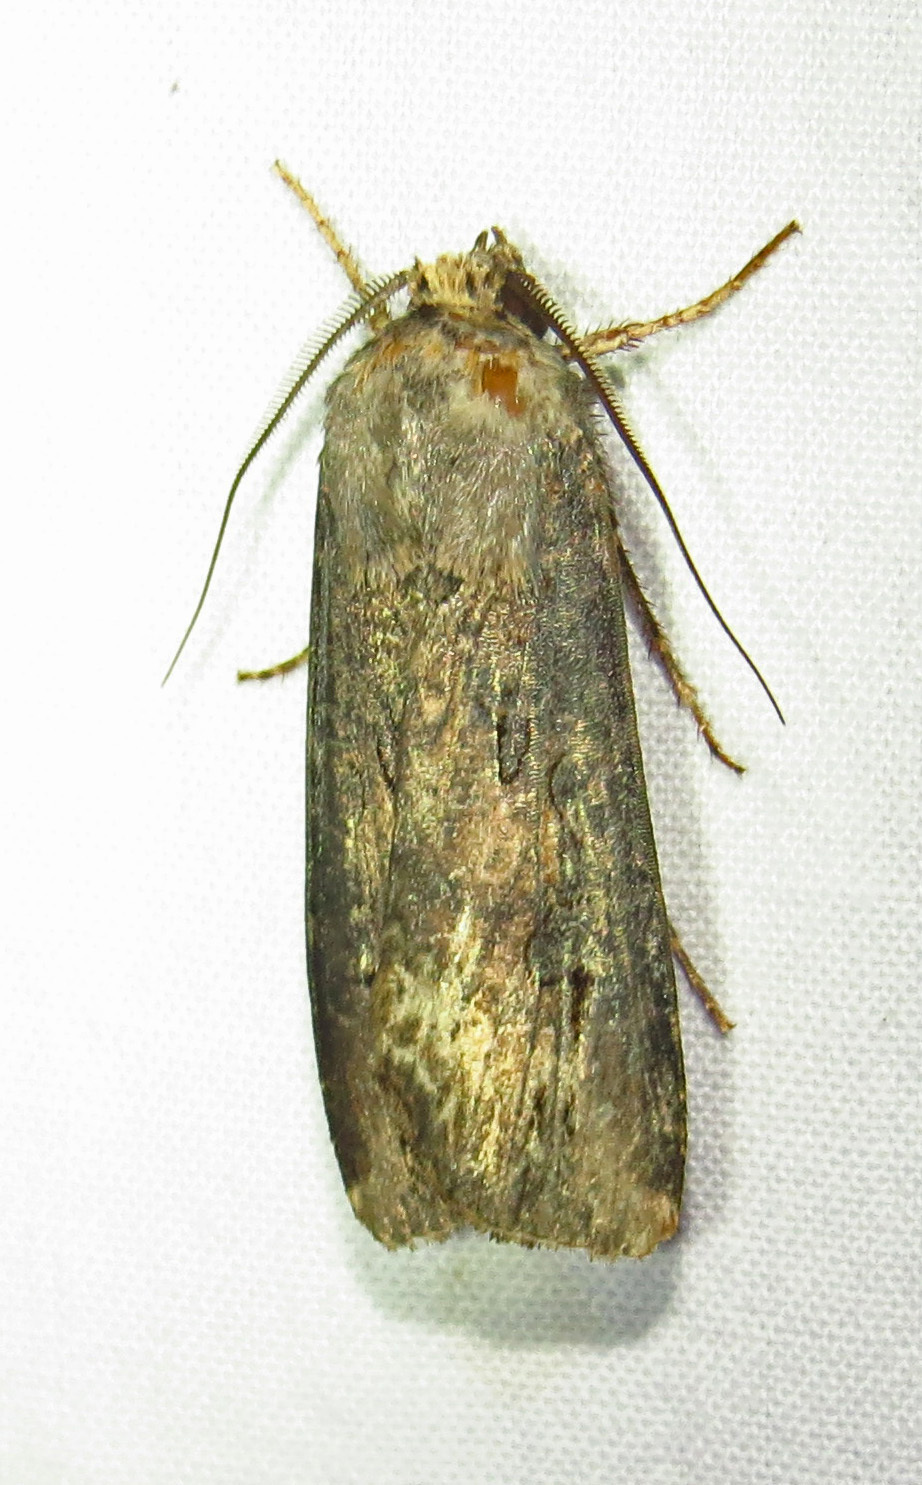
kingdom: Animalia
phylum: Arthropoda
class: Insecta
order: Lepidoptera
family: Noctuidae
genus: Agrotis
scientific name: Agrotis ipsilon
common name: Dark sword-grass
